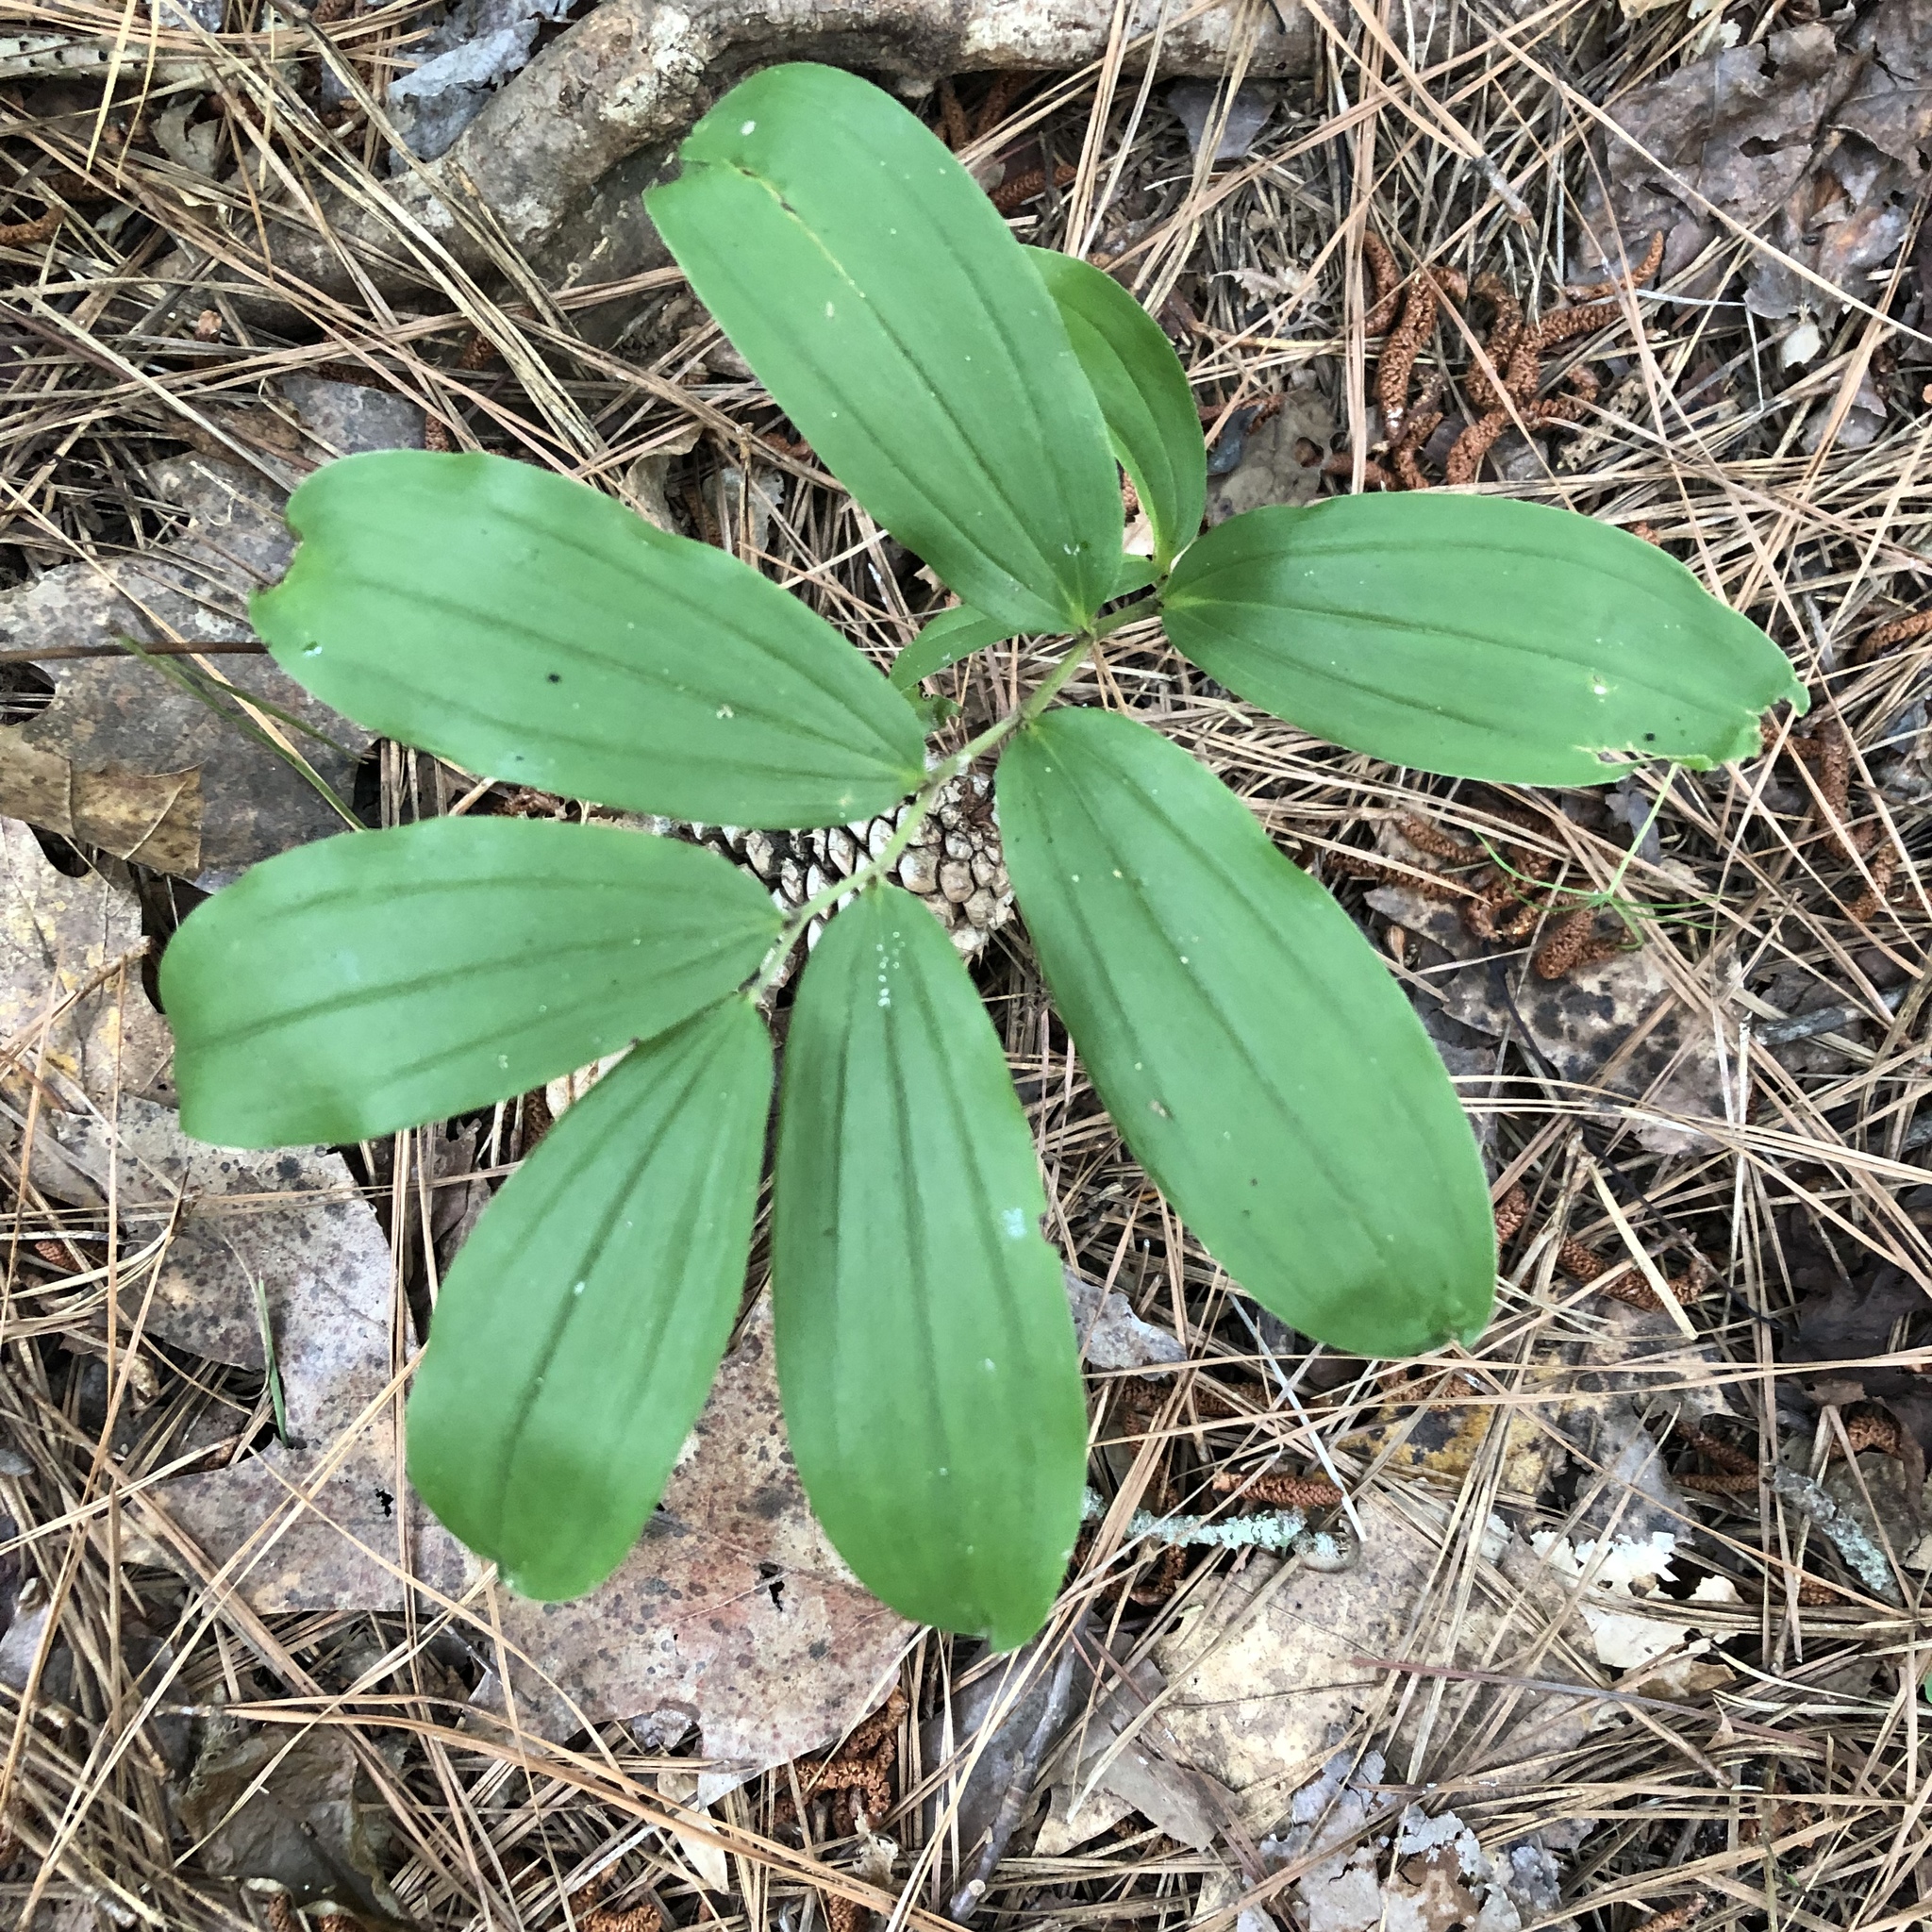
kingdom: Plantae
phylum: Tracheophyta
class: Liliopsida
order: Asparagales
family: Asparagaceae
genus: Maianthemum
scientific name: Maianthemum racemosum
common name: False spikenard
